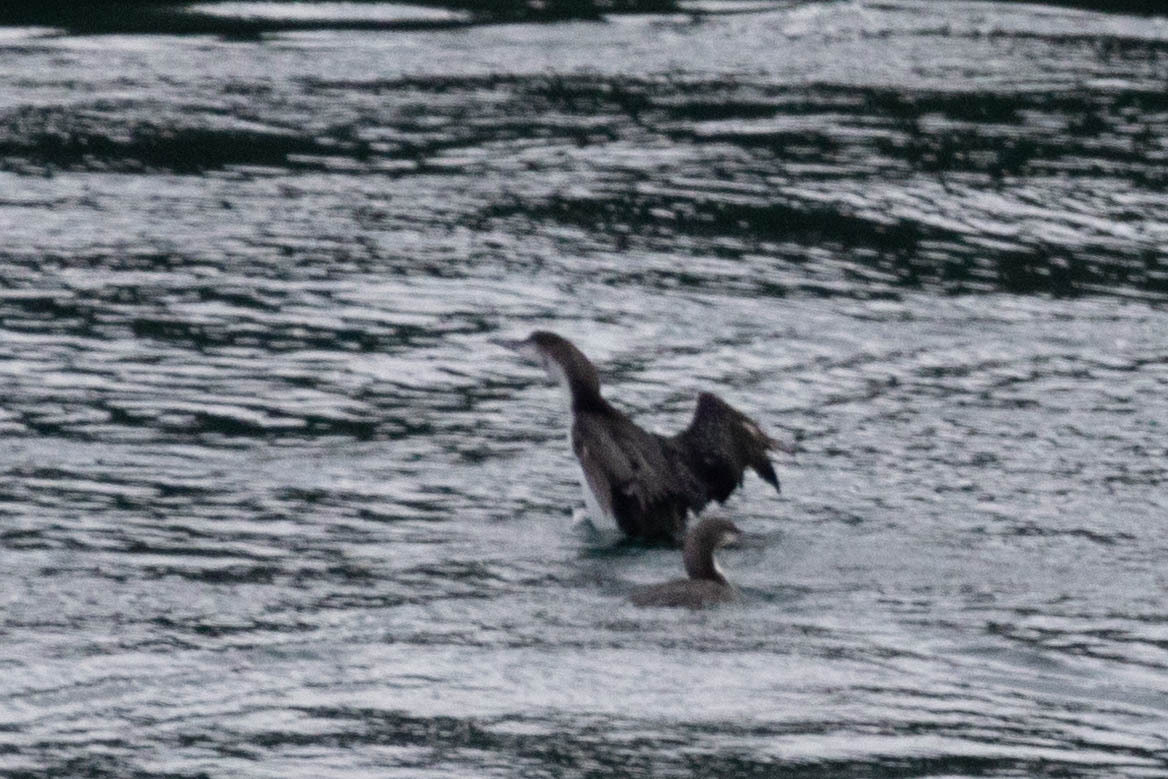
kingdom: Animalia
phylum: Chordata
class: Aves
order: Gaviiformes
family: Gaviidae
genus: Gavia
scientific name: Gavia pacifica
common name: Pacific loon
